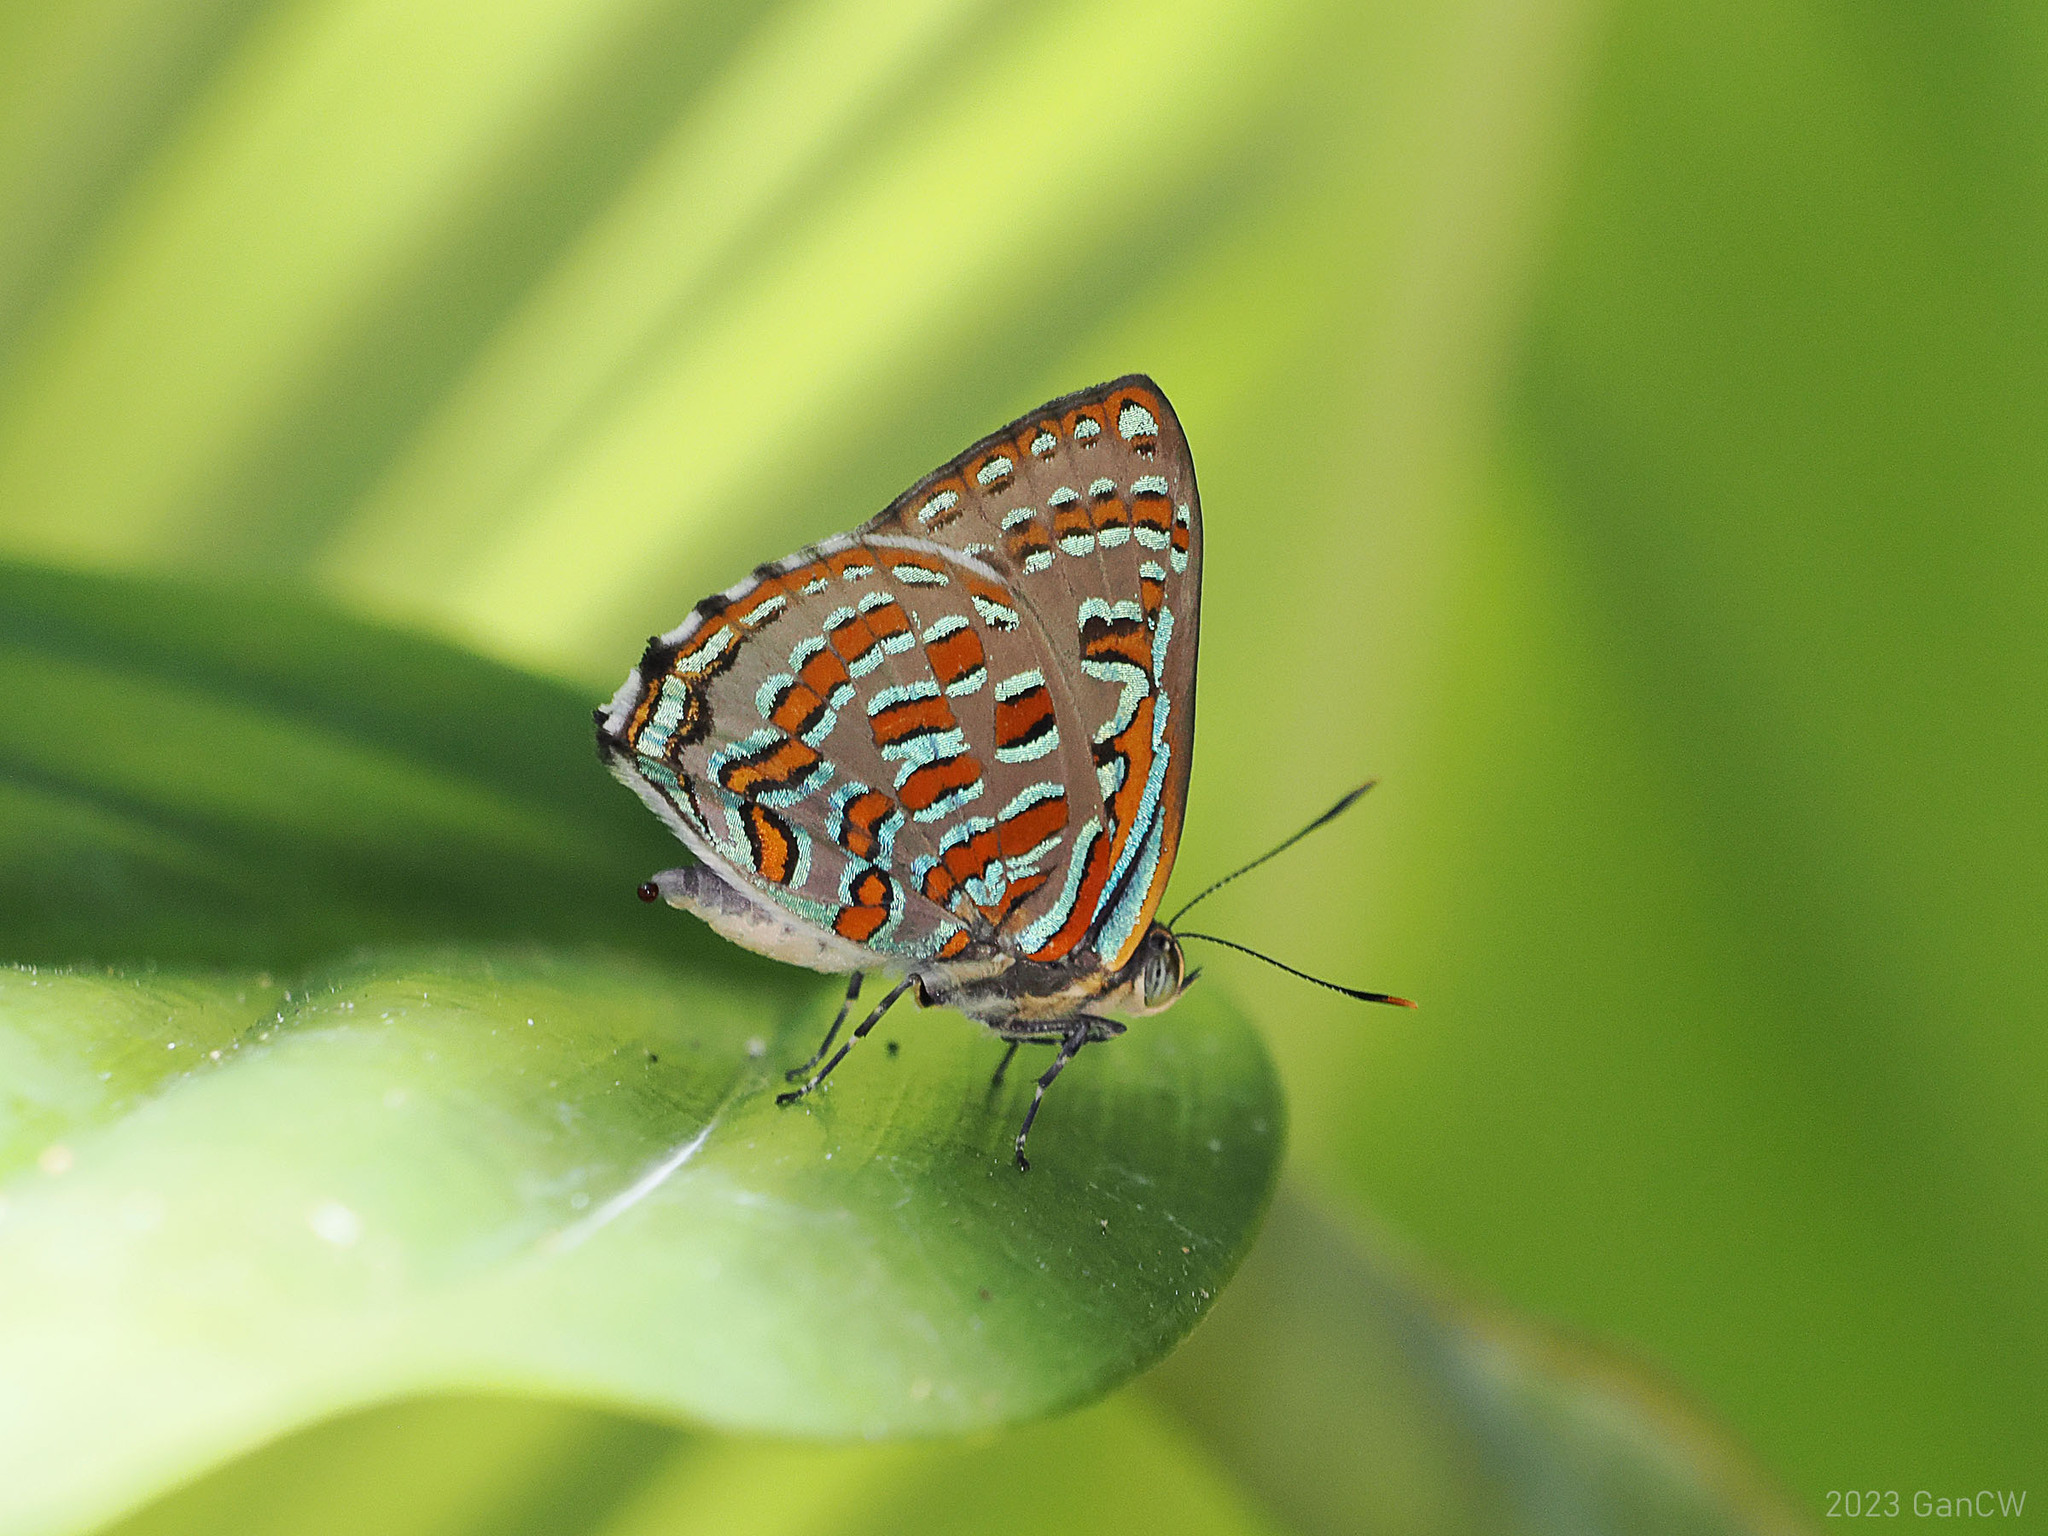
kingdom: Animalia
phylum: Arthropoda
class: Insecta
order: Lepidoptera
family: Lycaenidae
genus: Hypochrysops
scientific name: Hypochrysops pythias
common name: Peacock jewel
